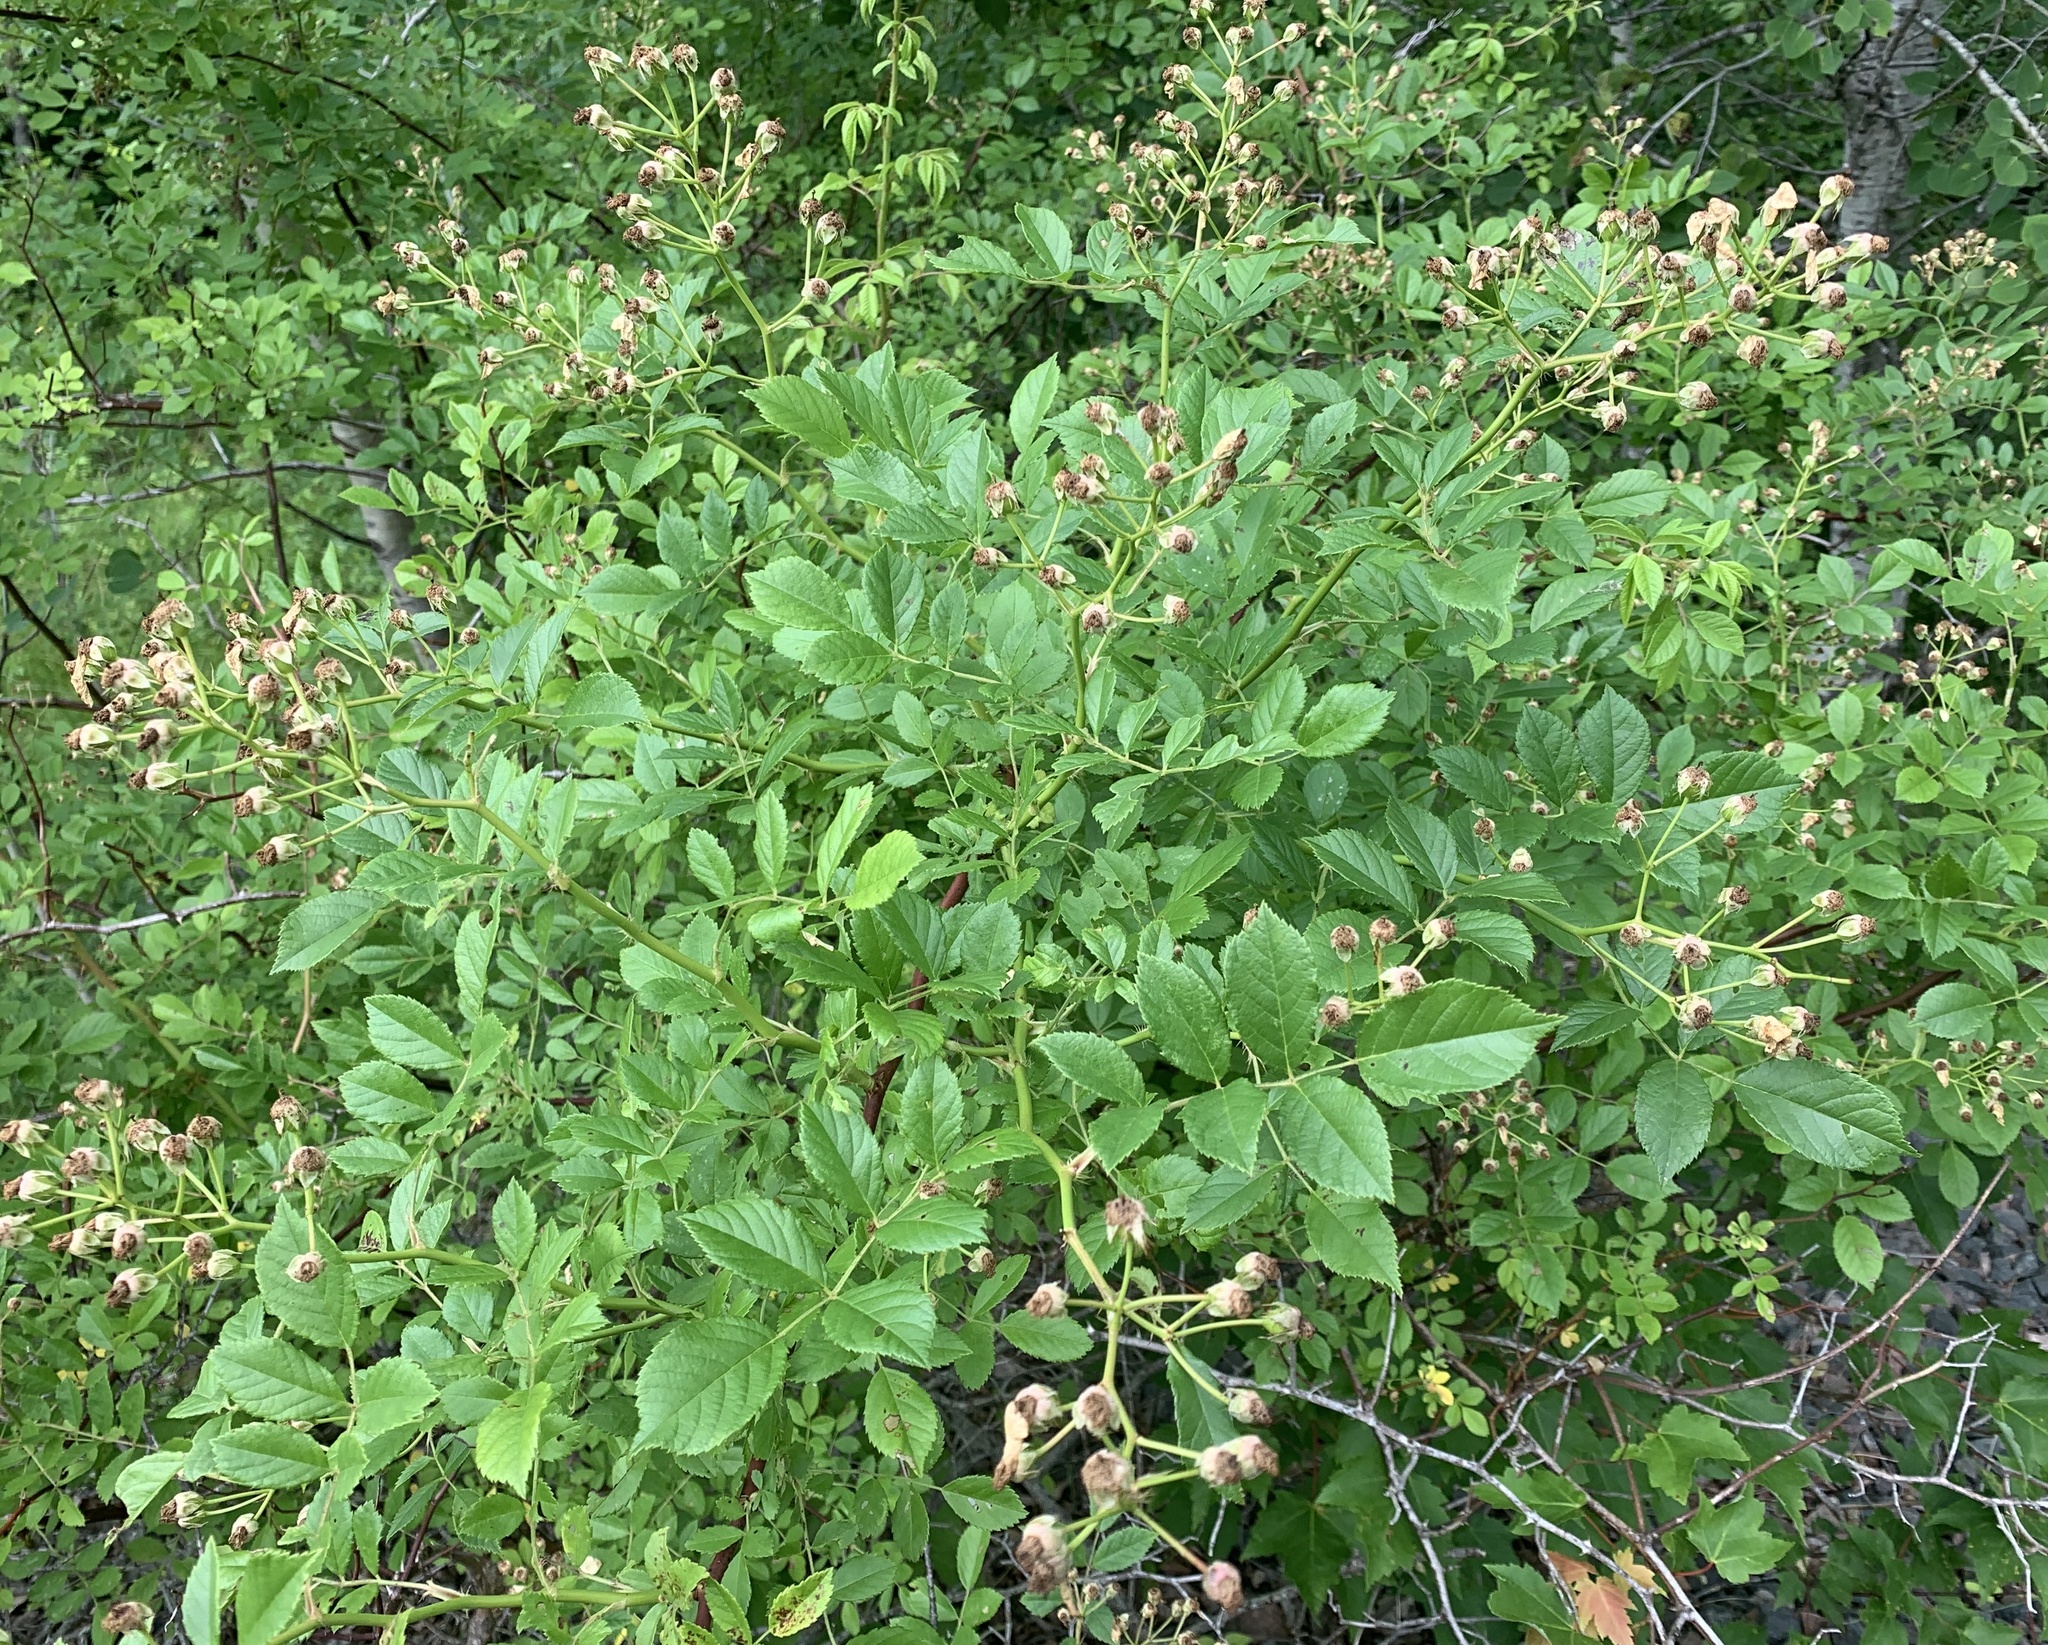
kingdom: Plantae
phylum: Tracheophyta
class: Magnoliopsida
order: Rosales
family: Rosaceae
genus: Rosa
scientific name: Rosa multiflora
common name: Multiflora rose
